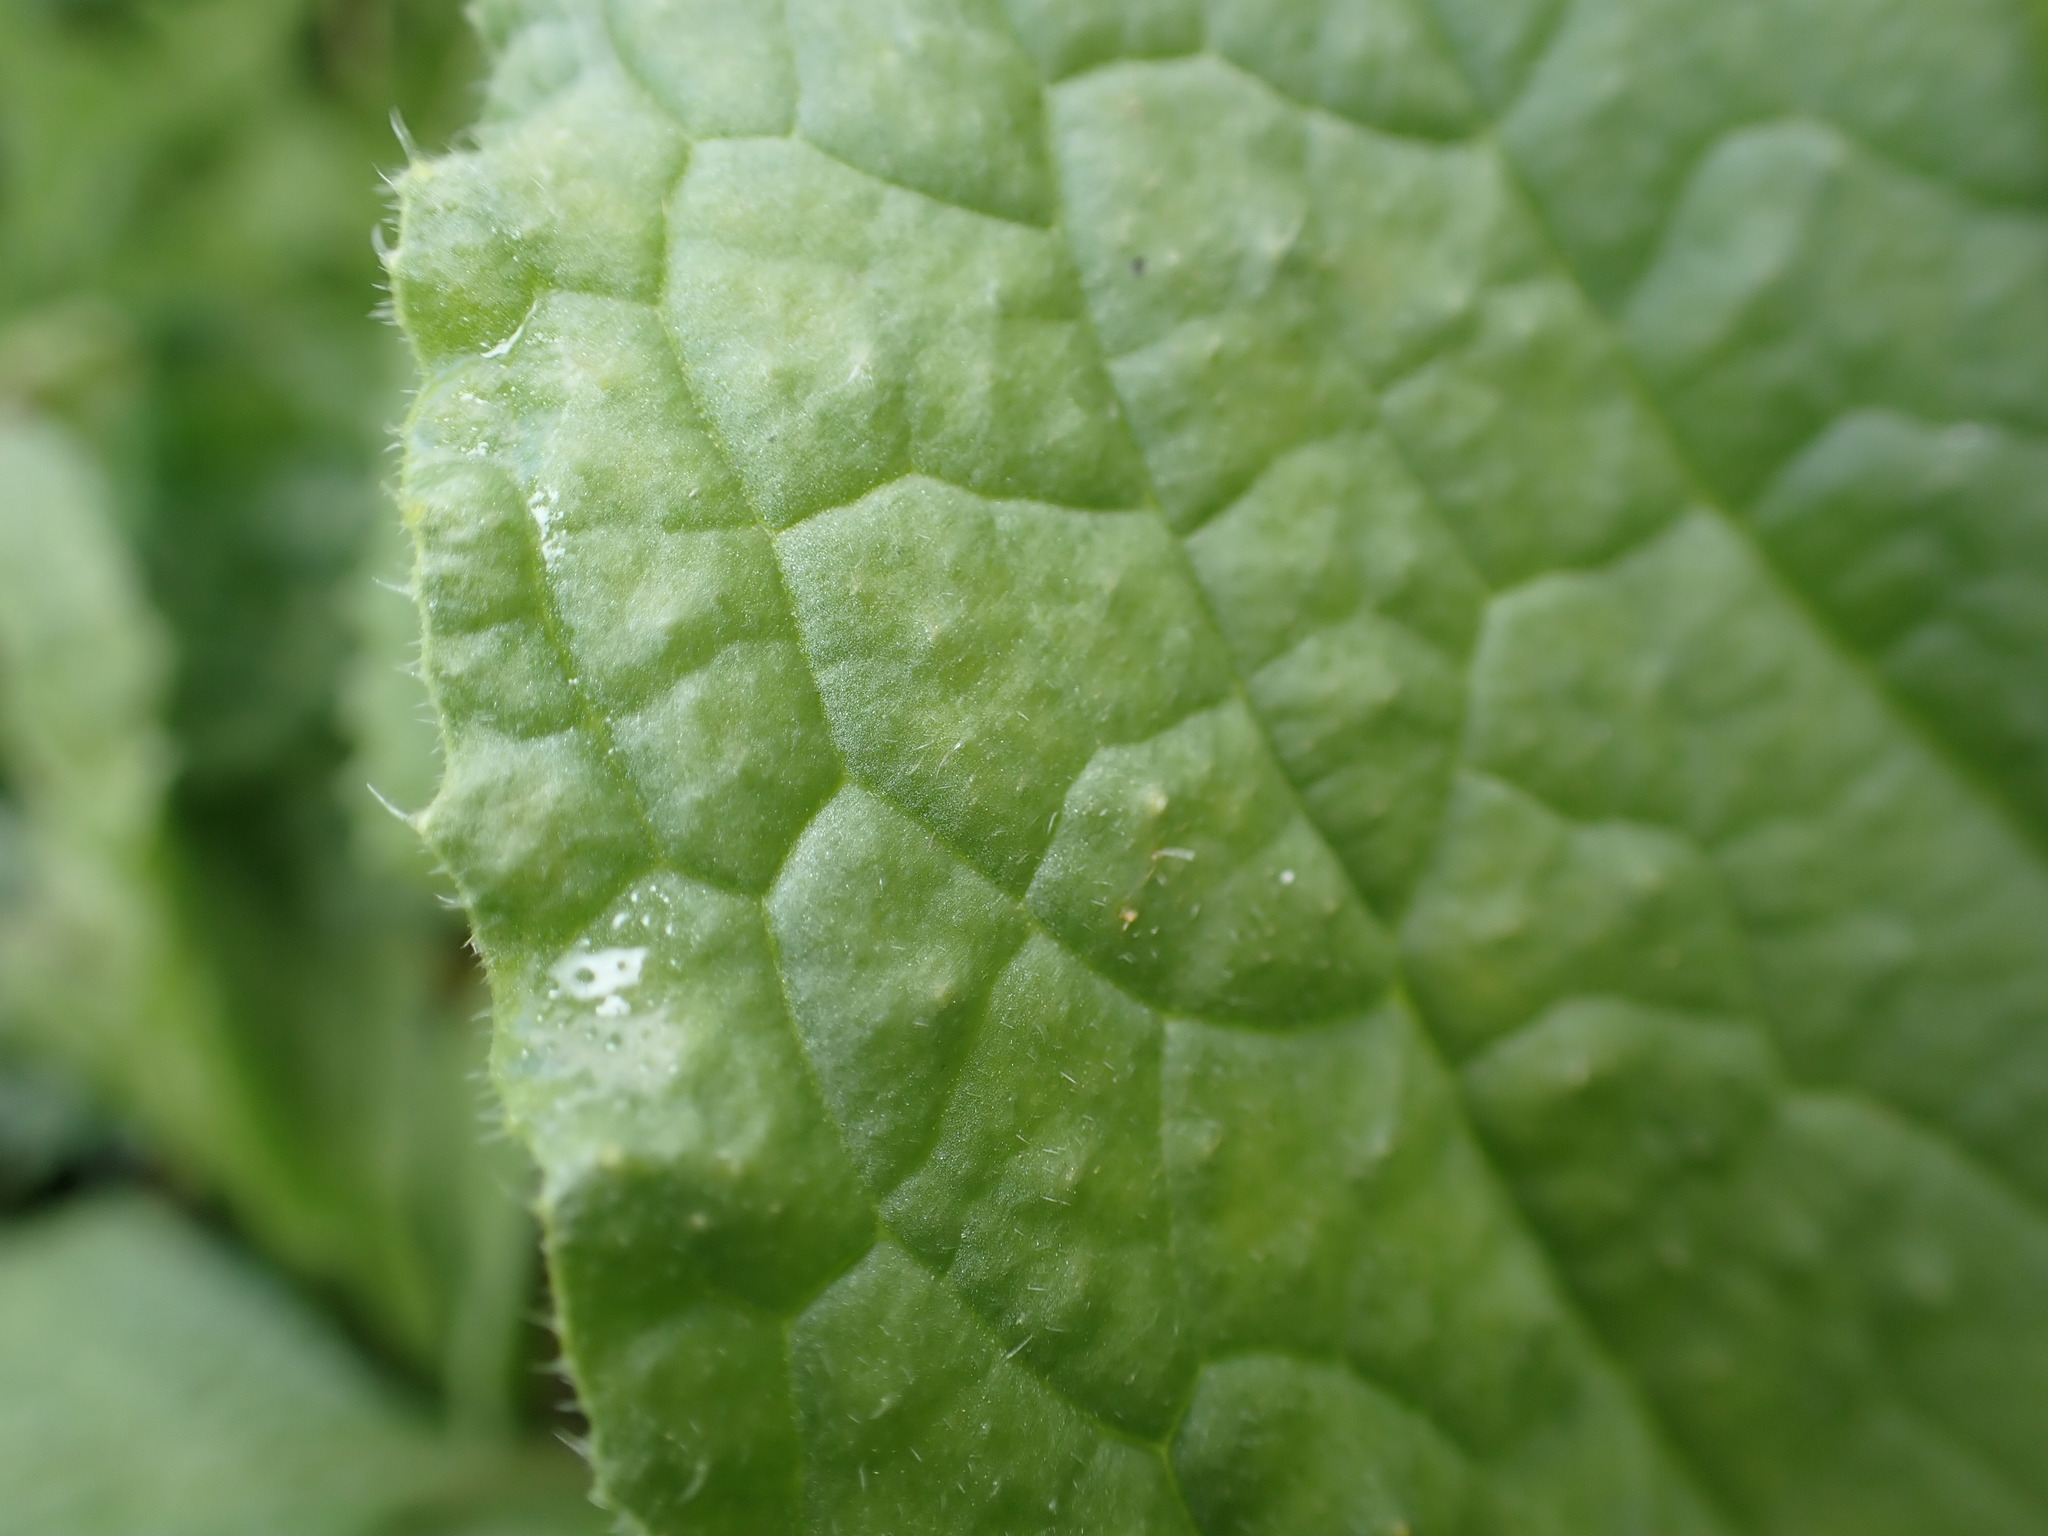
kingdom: Plantae
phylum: Tracheophyta
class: Magnoliopsida
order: Boraginales
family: Boraginaceae
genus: Borago
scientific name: Borago officinalis
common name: Borage
